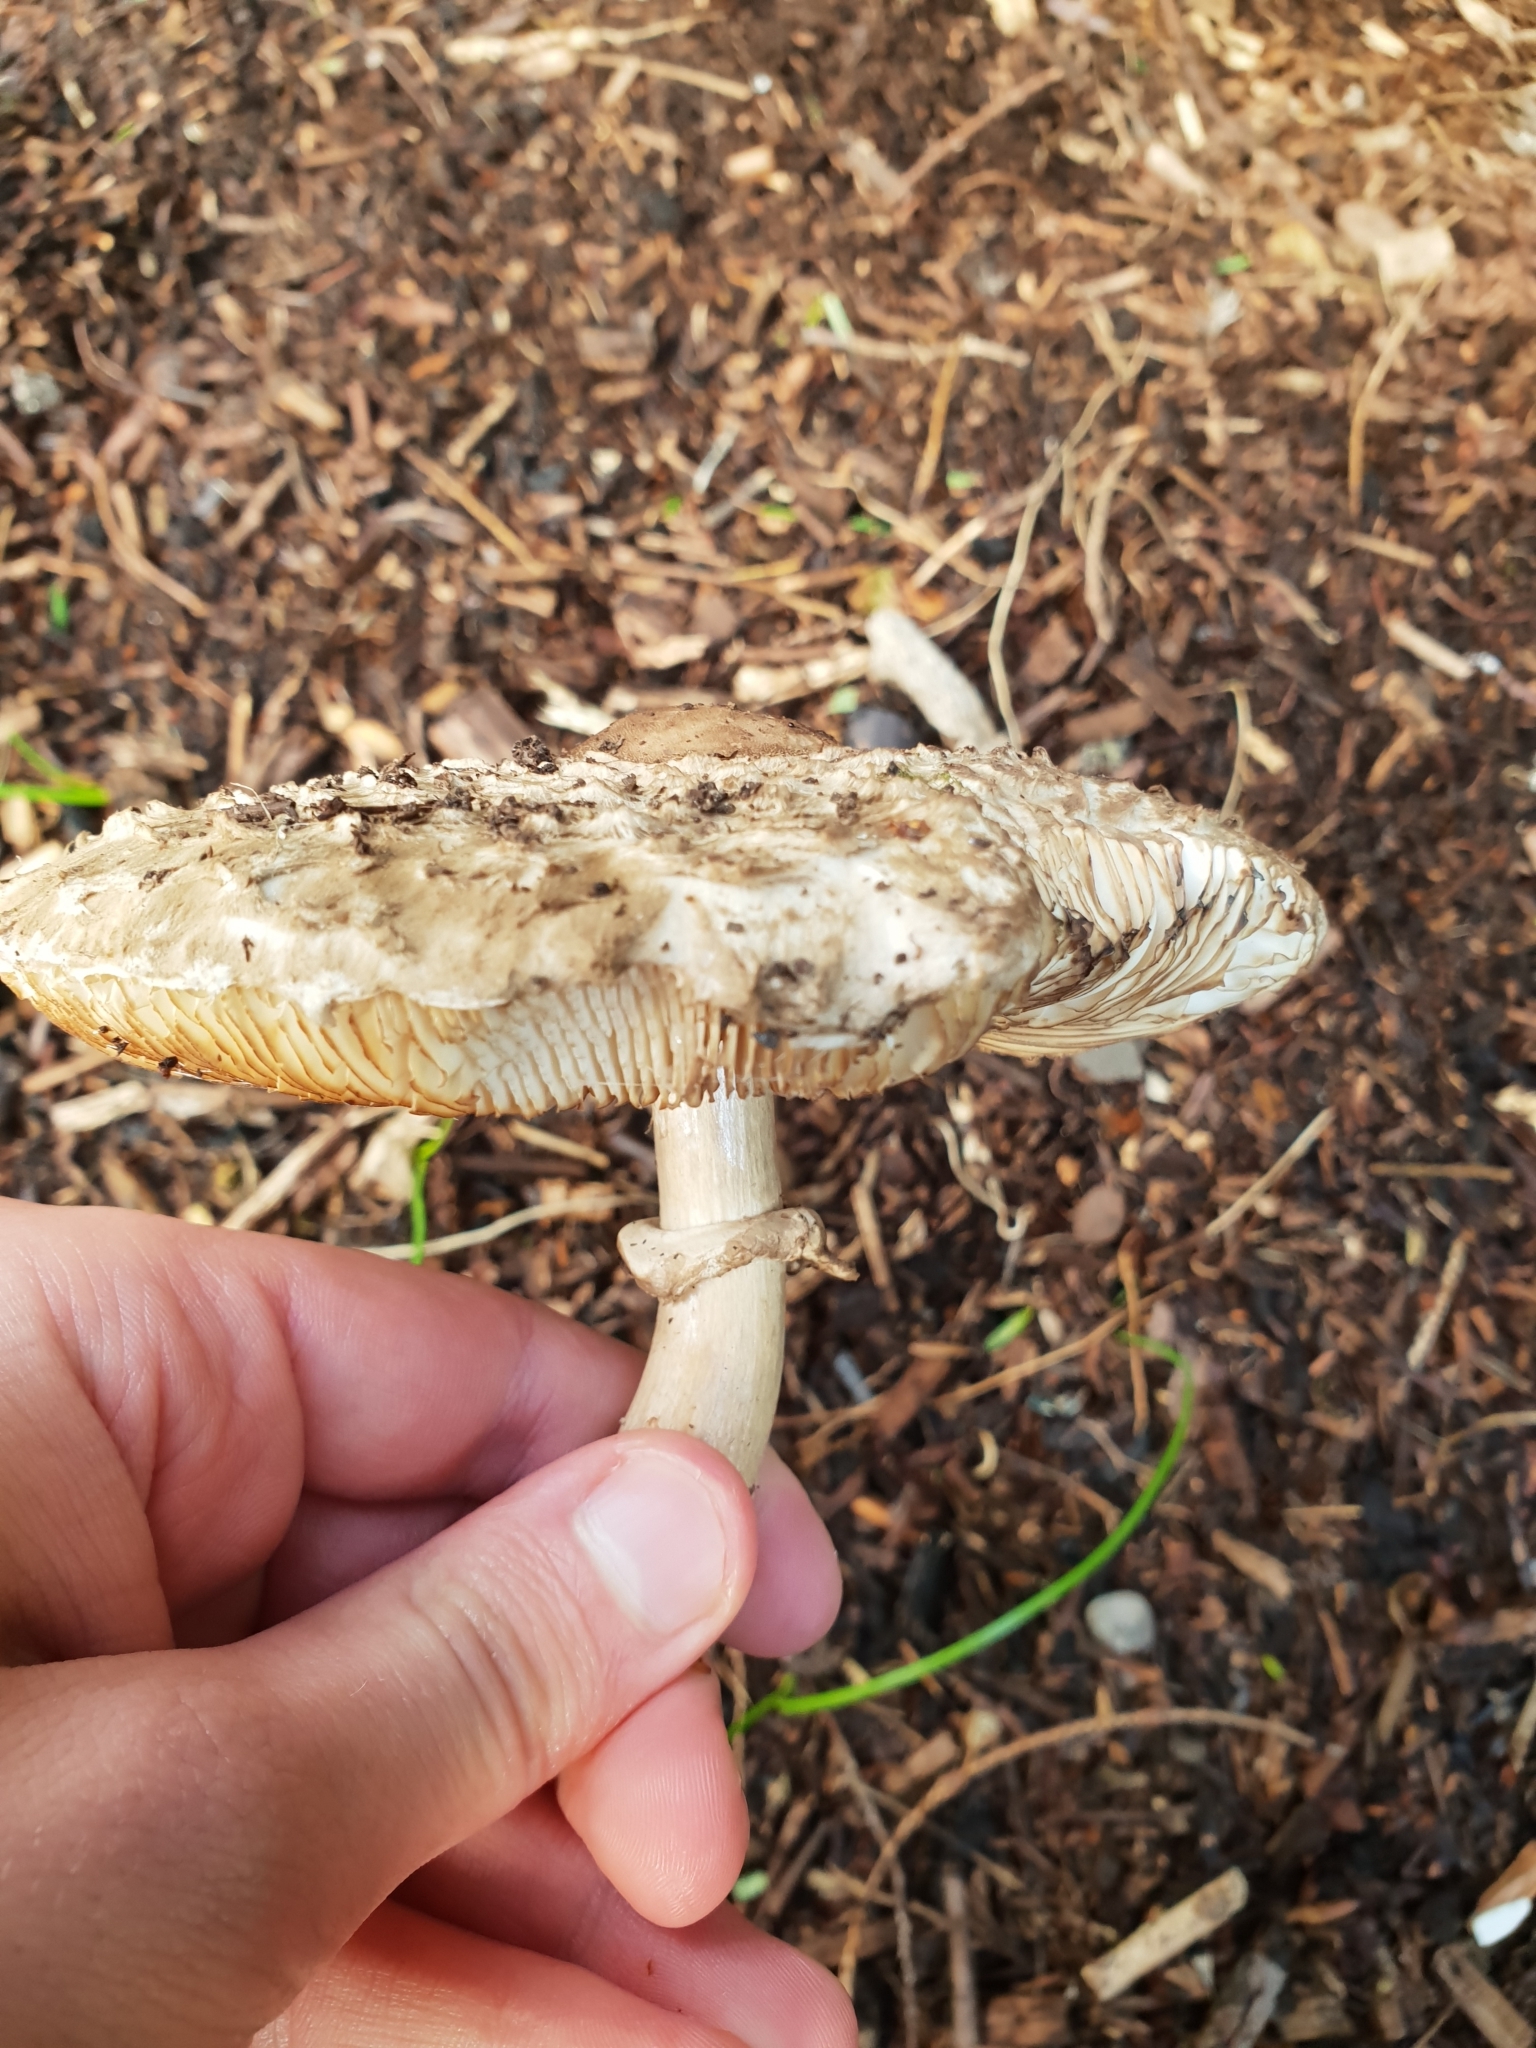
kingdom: Fungi
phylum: Basidiomycota
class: Agaricomycetes
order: Agaricales
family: Agaricaceae
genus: Chlorophyllum
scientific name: Chlorophyllum rhacodes
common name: Shaggy parasol
